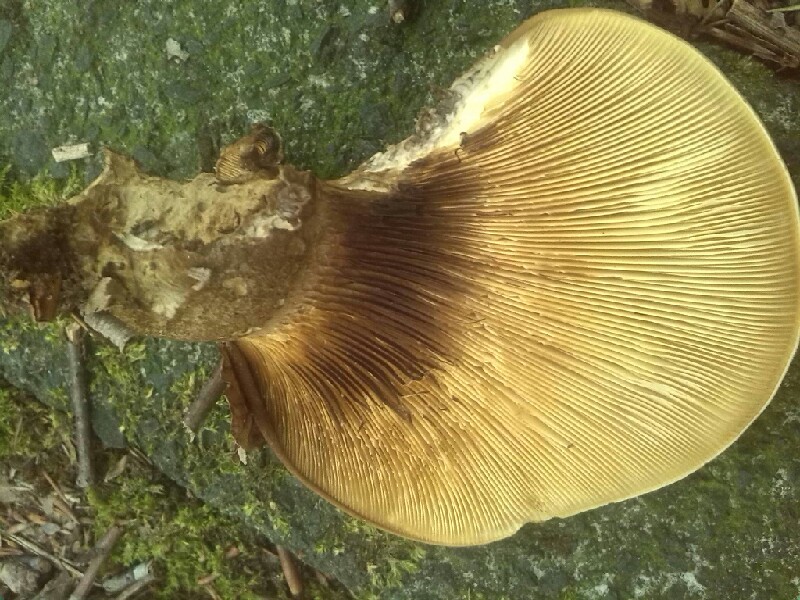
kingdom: Fungi
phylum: Basidiomycota
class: Agaricomycetes
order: Boletales
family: Tapinellaceae
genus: Tapinella
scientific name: Tapinella atrotomentosa
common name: Velvet rollrim
